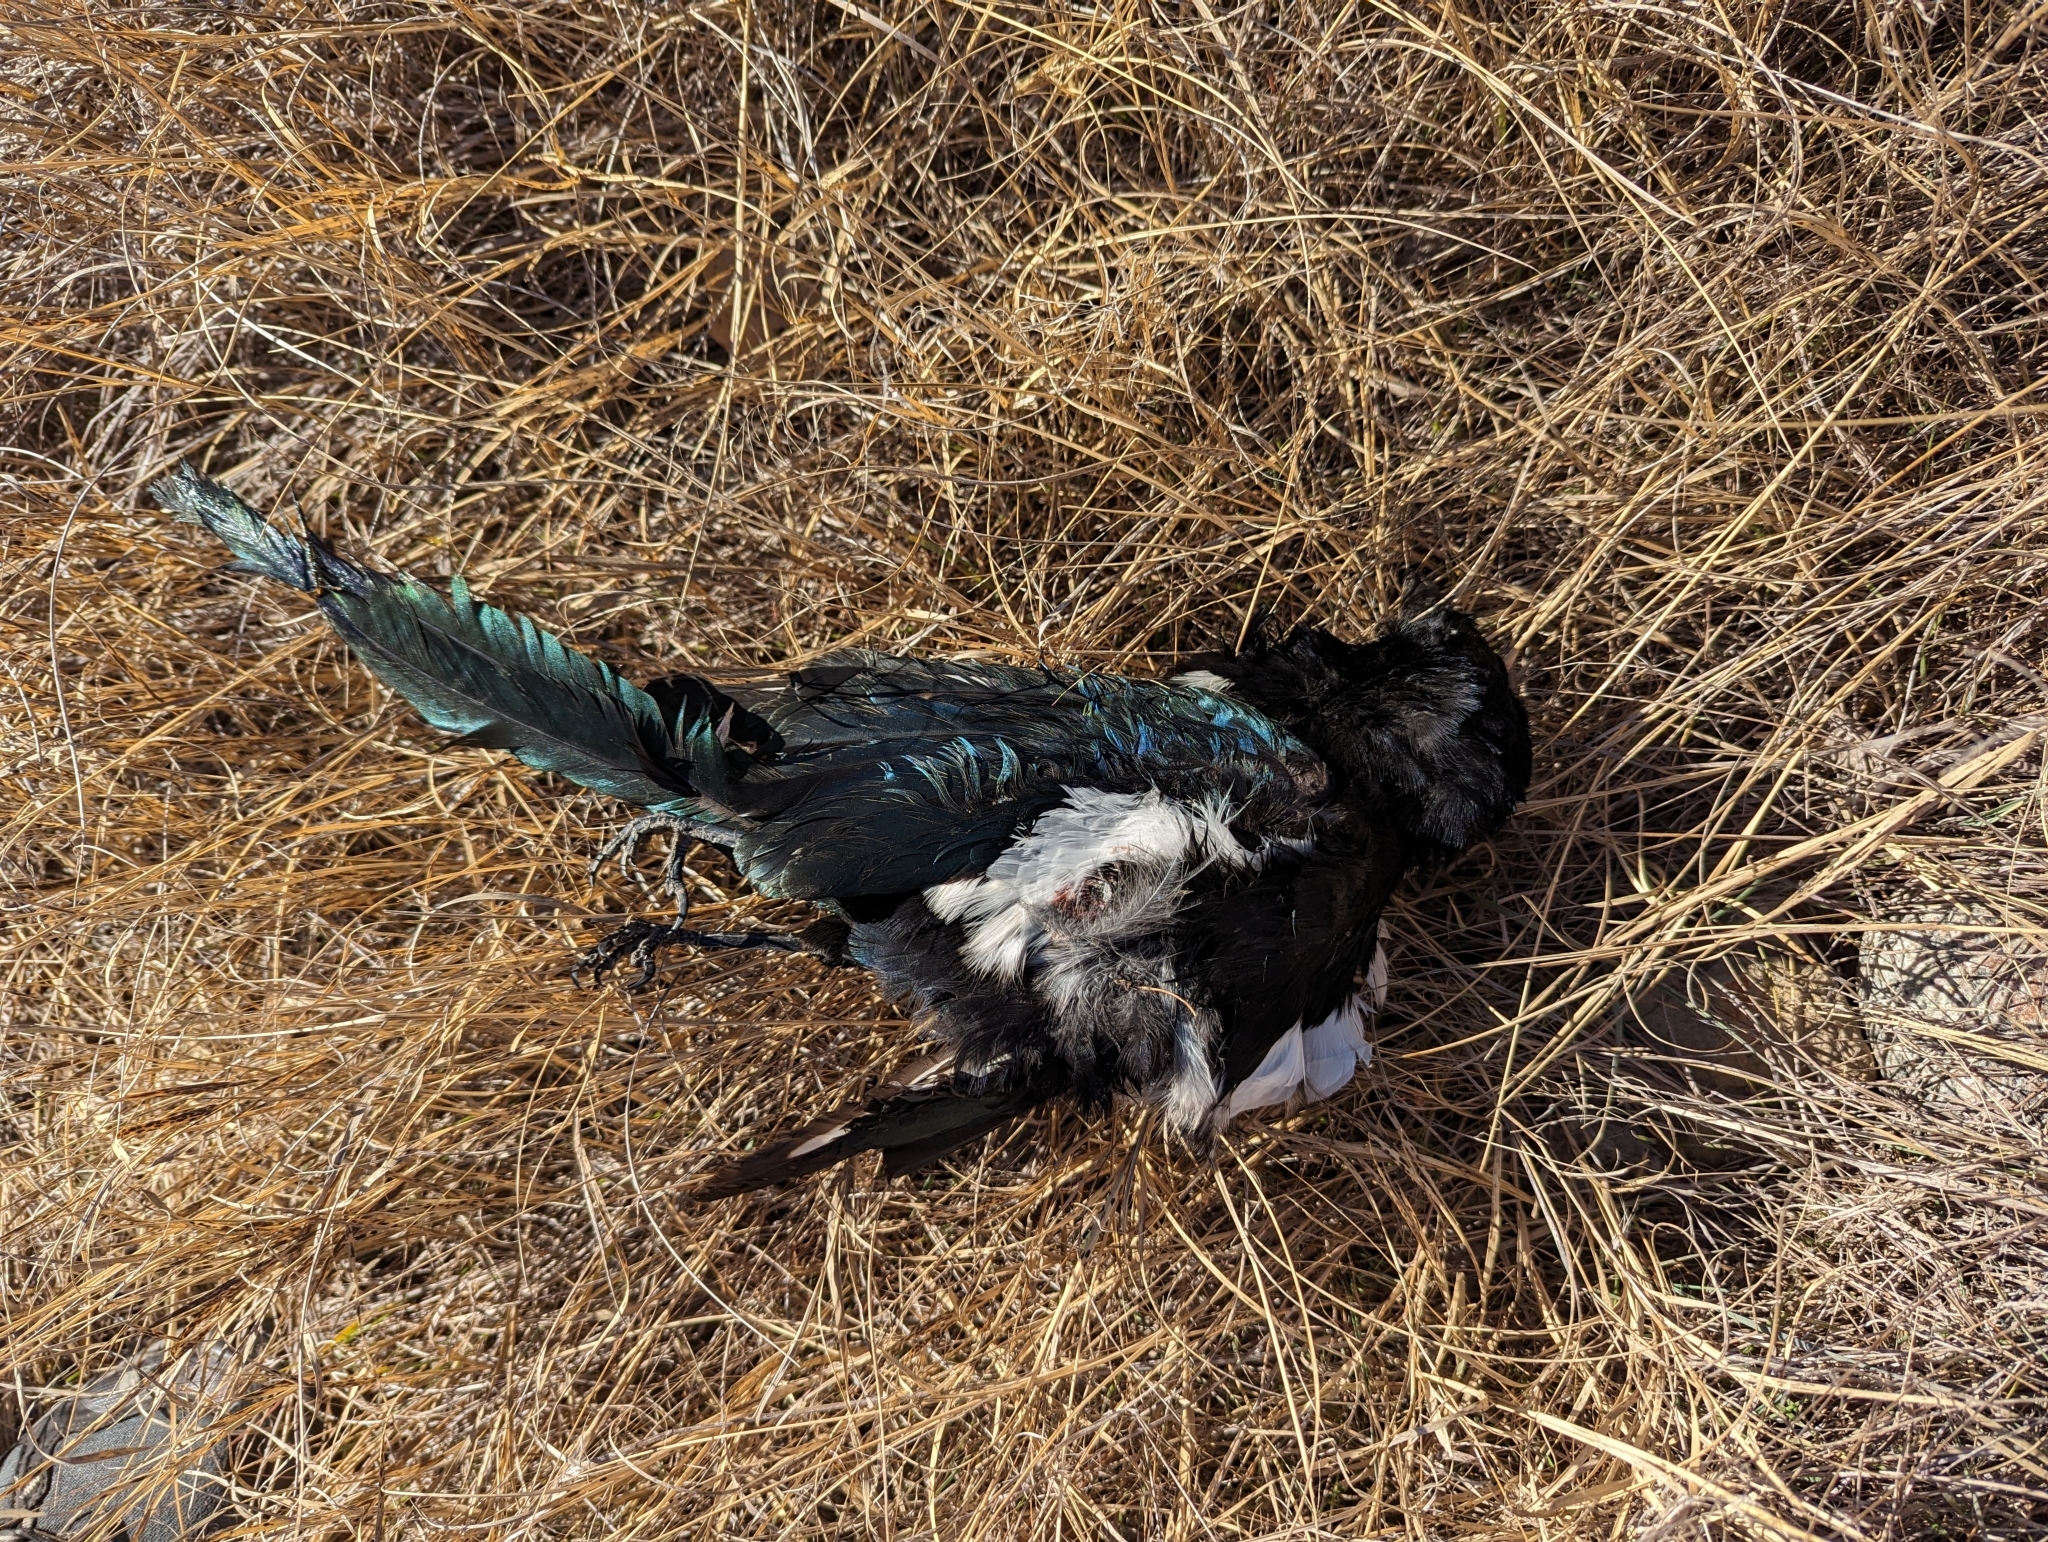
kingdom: Animalia
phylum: Chordata
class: Aves
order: Passeriformes
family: Corvidae
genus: Pica
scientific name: Pica hudsonia
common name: Black-billed magpie
